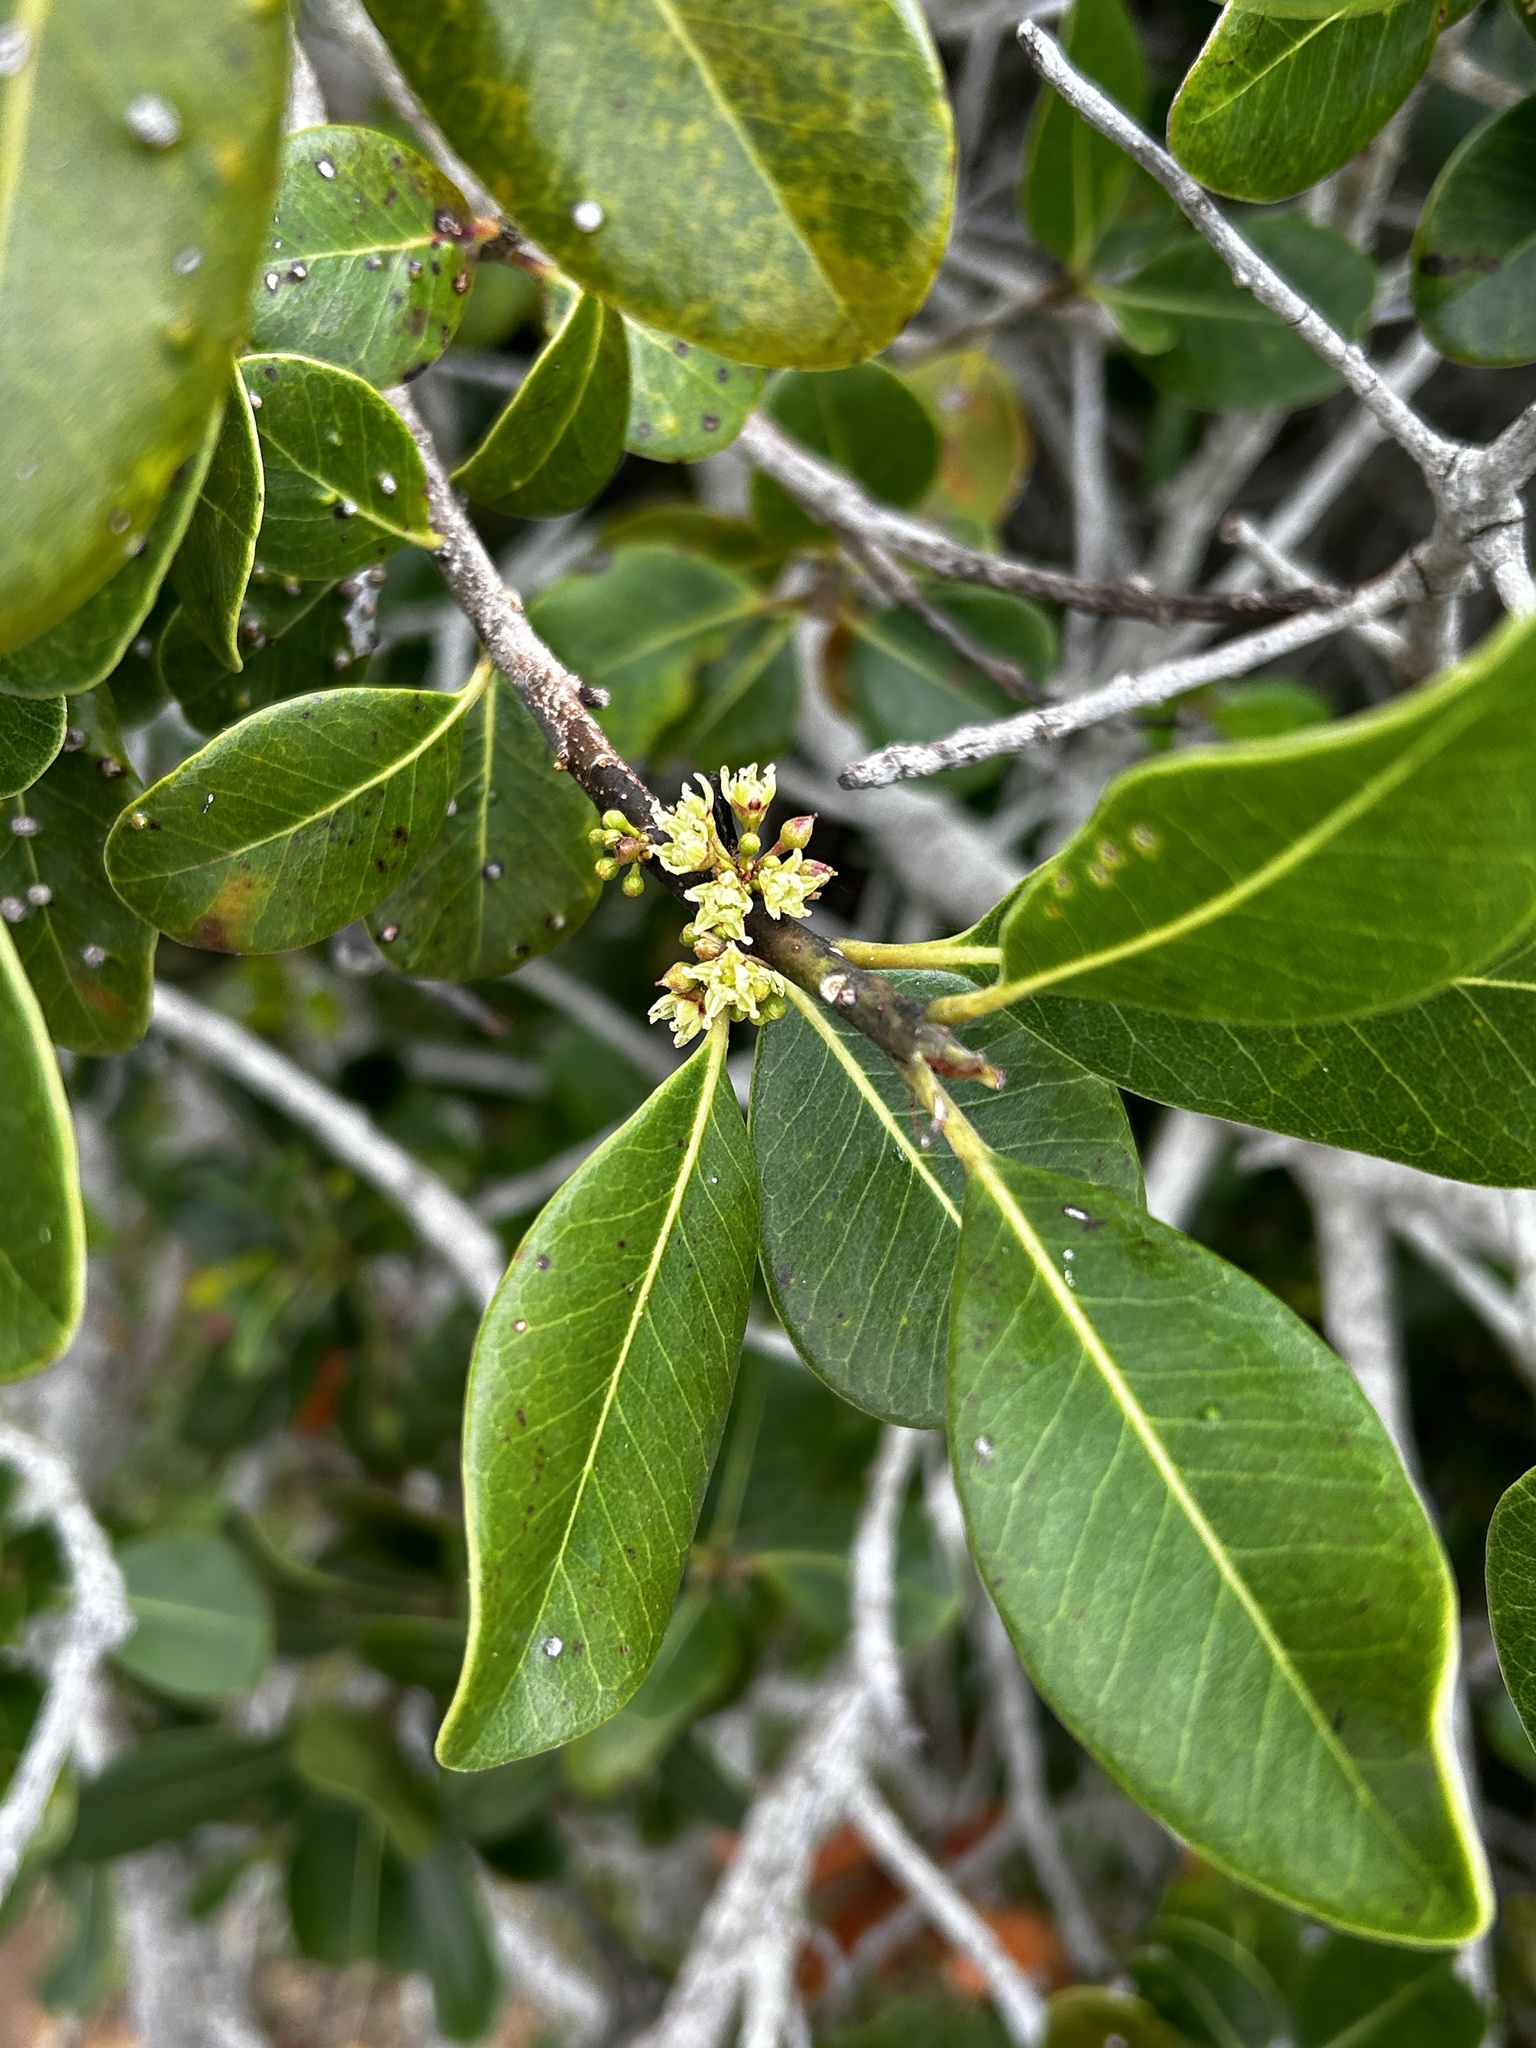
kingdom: Plantae
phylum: Tracheophyta
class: Magnoliopsida
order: Ericales
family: Sapotaceae
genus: Sideroxylon
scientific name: Sideroxylon inerme
